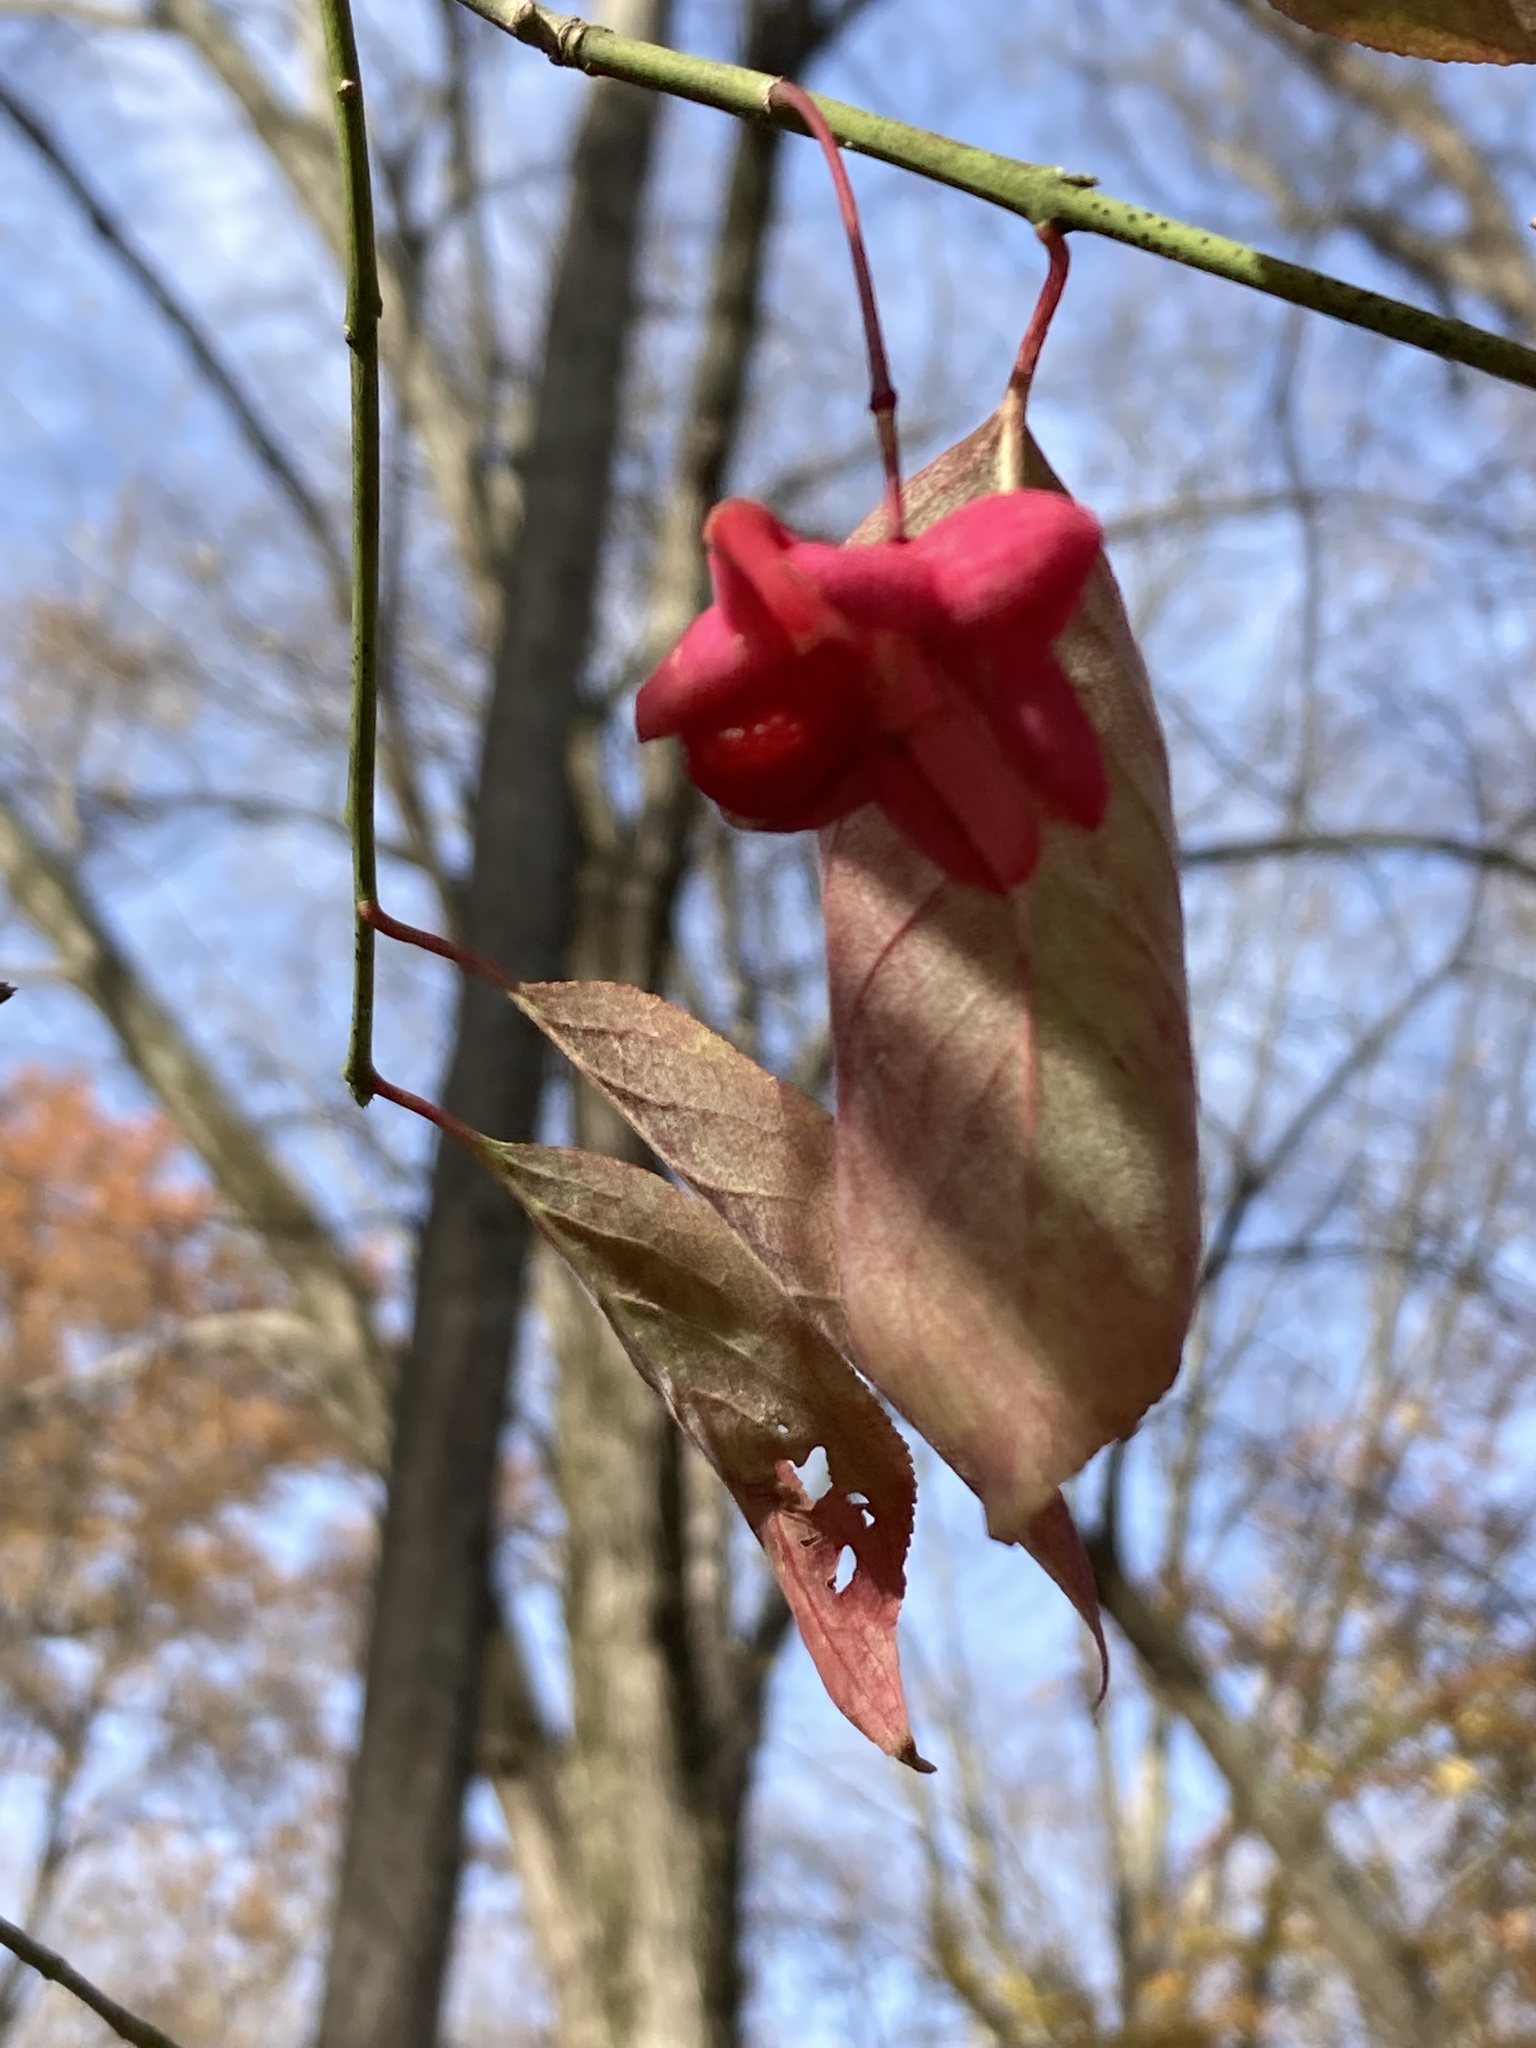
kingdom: Plantae
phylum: Tracheophyta
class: Magnoliopsida
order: Celastrales
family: Celastraceae
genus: Euonymus
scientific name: Euonymus atropurpureus
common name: Eastern wahoo
